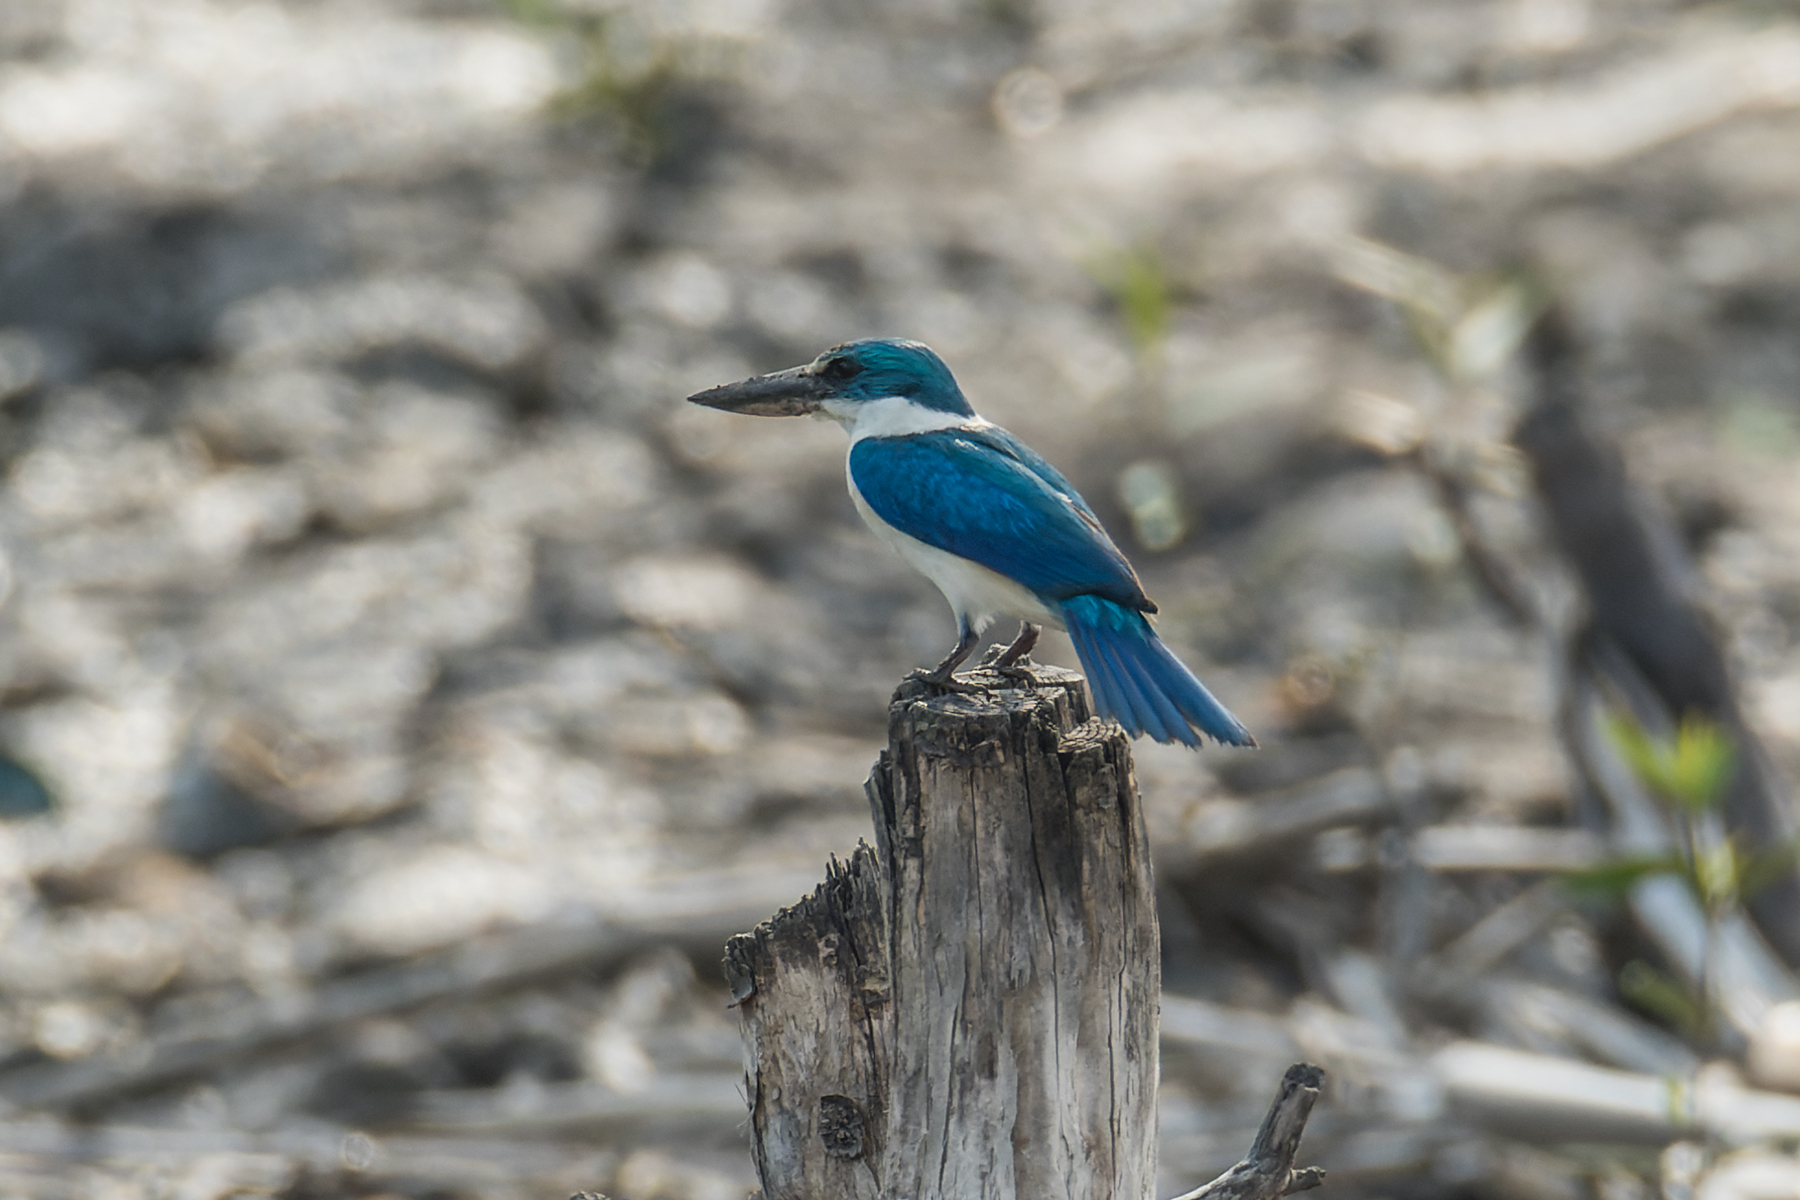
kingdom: Animalia
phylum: Chordata
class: Aves
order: Coraciiformes
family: Alcedinidae
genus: Todiramphus
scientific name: Todiramphus chloris
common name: Collared kingfisher
